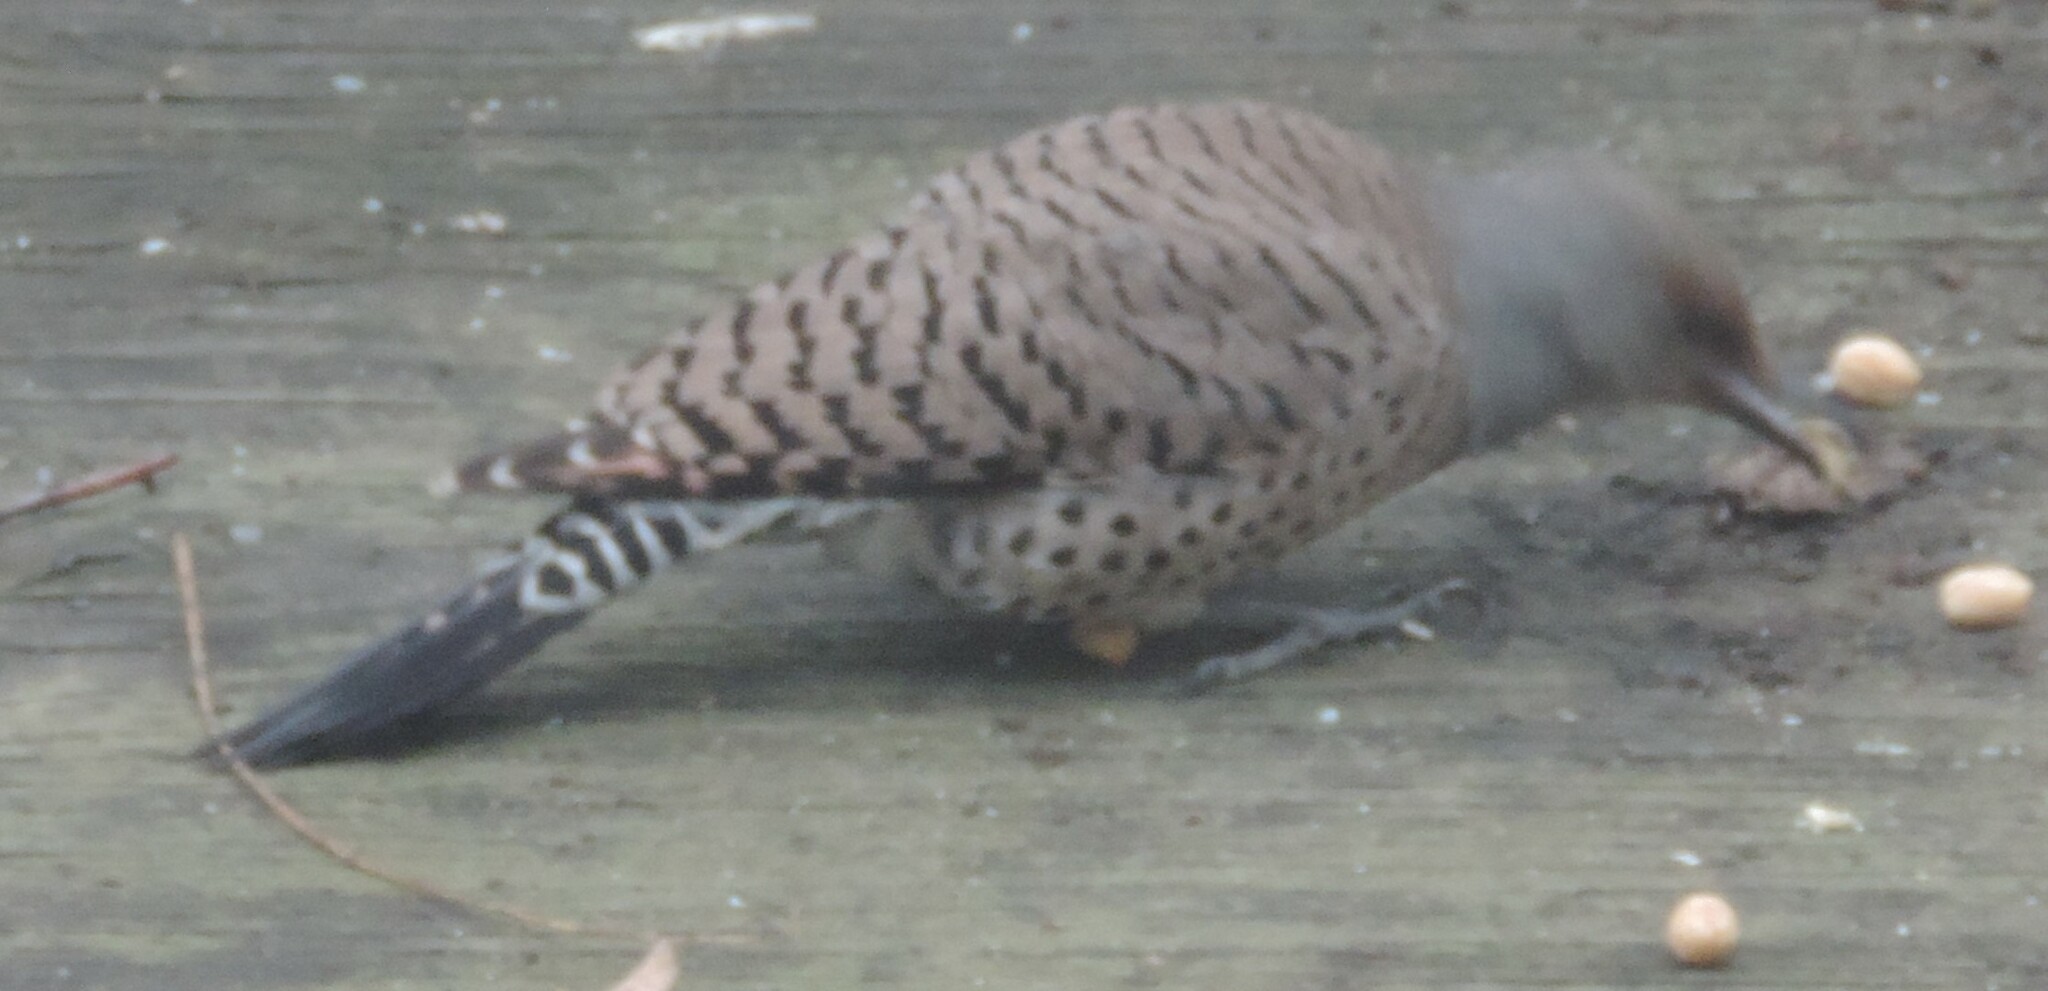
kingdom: Animalia
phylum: Chordata
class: Aves
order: Piciformes
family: Picidae
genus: Colaptes
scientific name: Colaptes auratus
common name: Northern flicker
